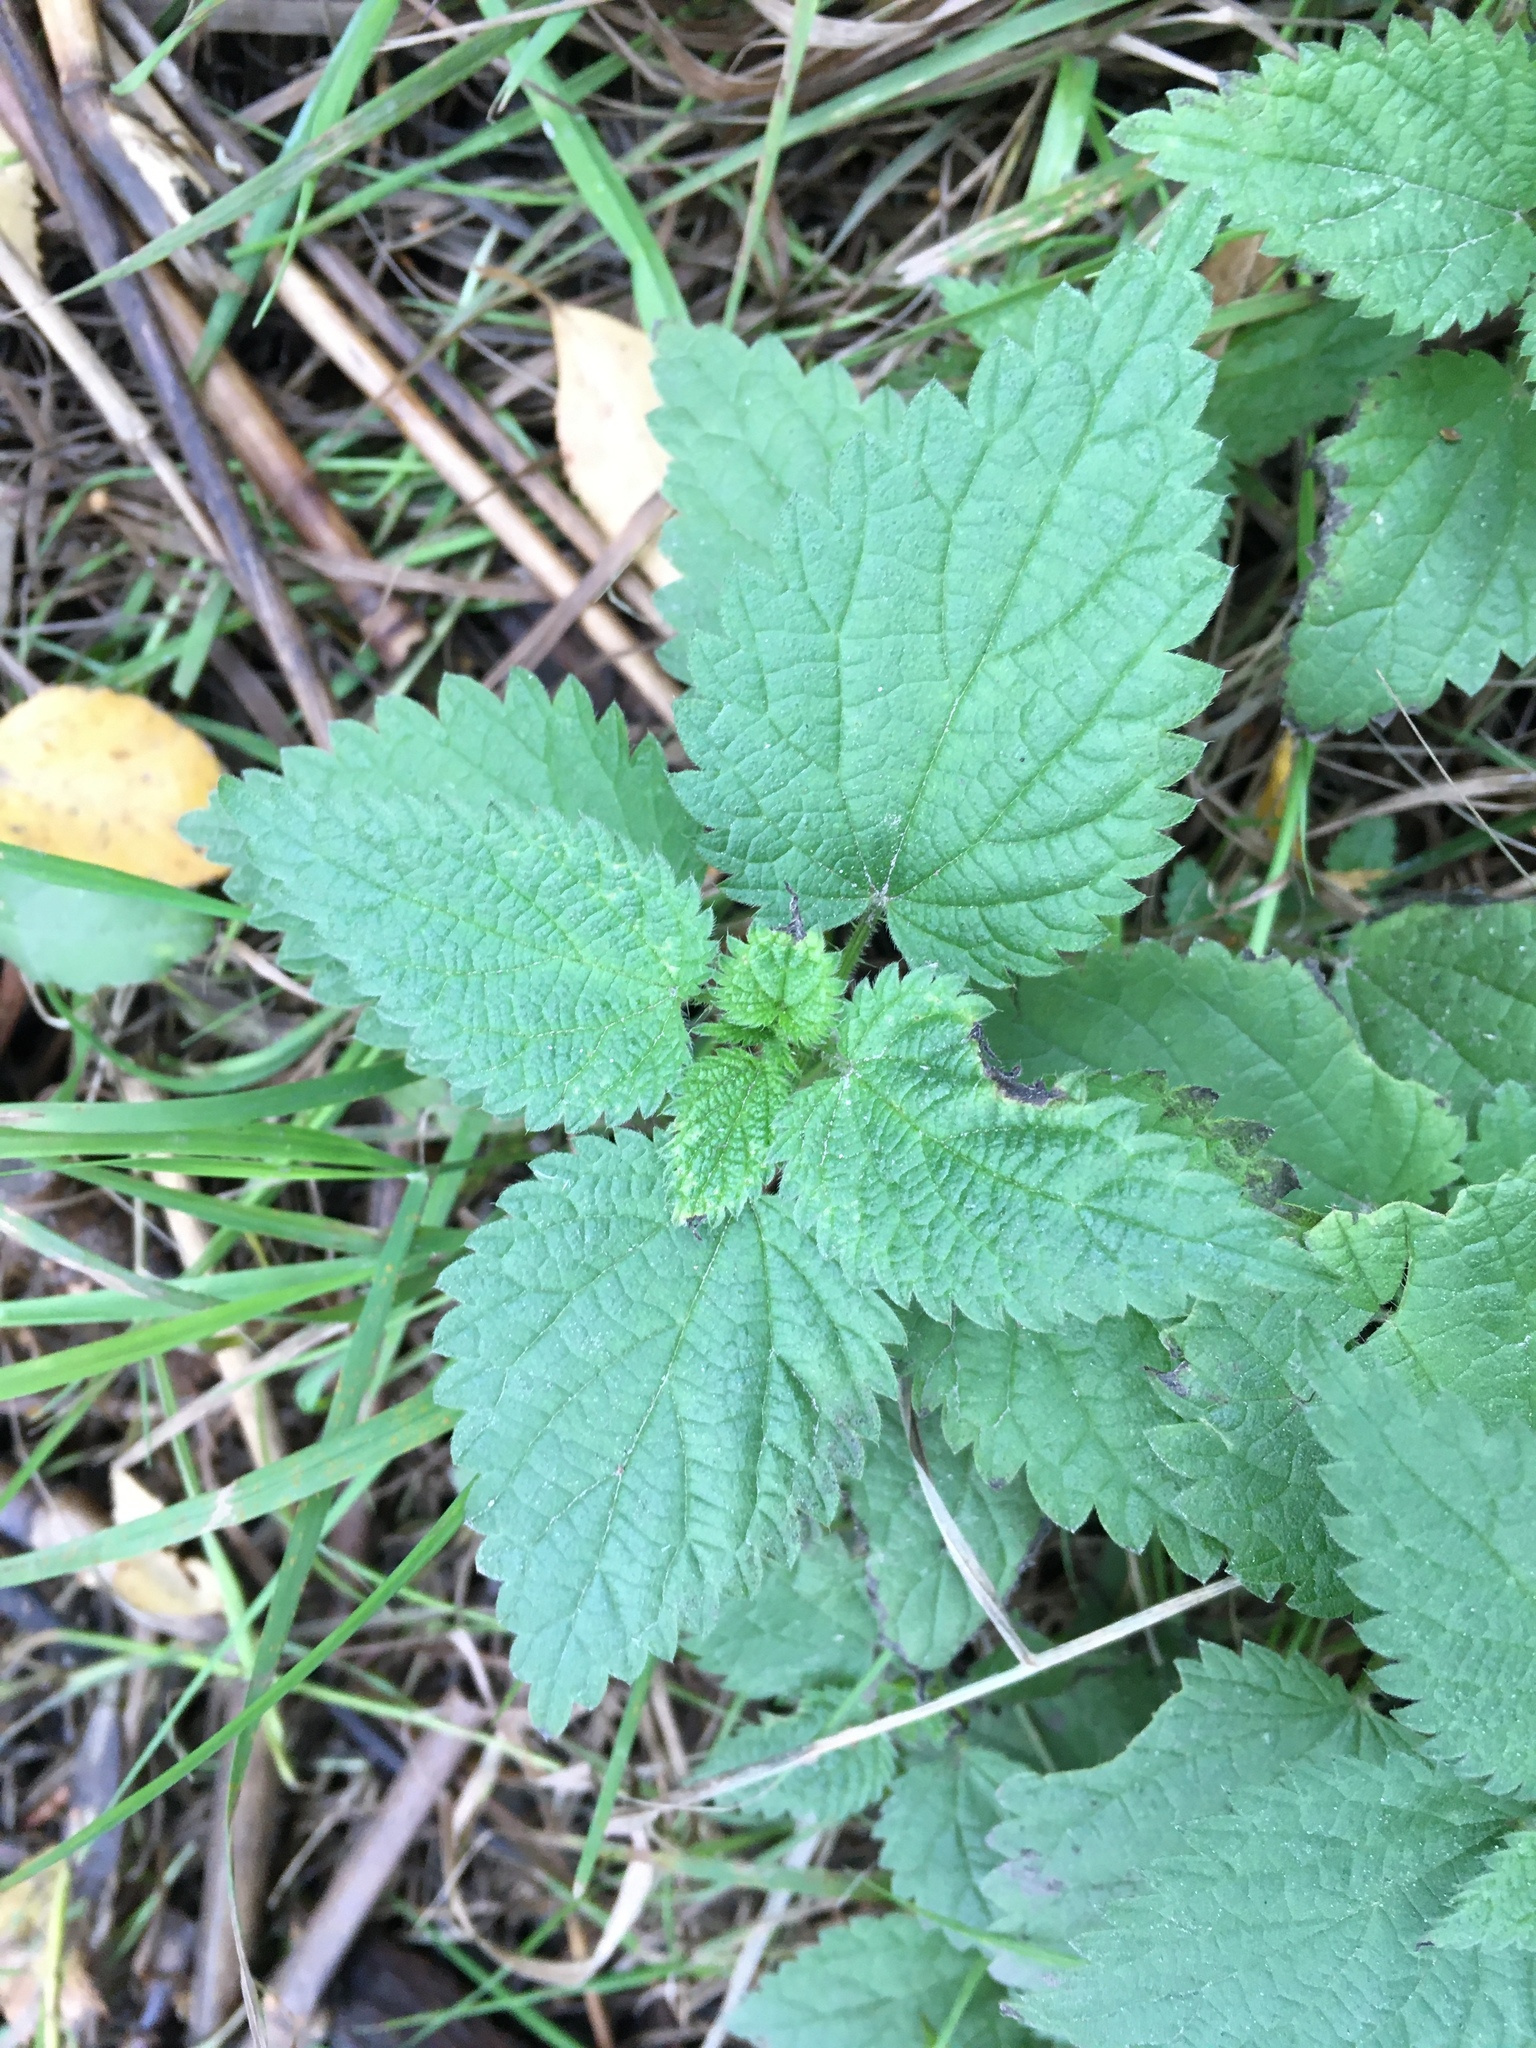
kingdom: Plantae
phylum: Tracheophyta
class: Magnoliopsida
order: Rosales
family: Urticaceae
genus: Urtica
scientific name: Urtica dioica
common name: Common nettle
